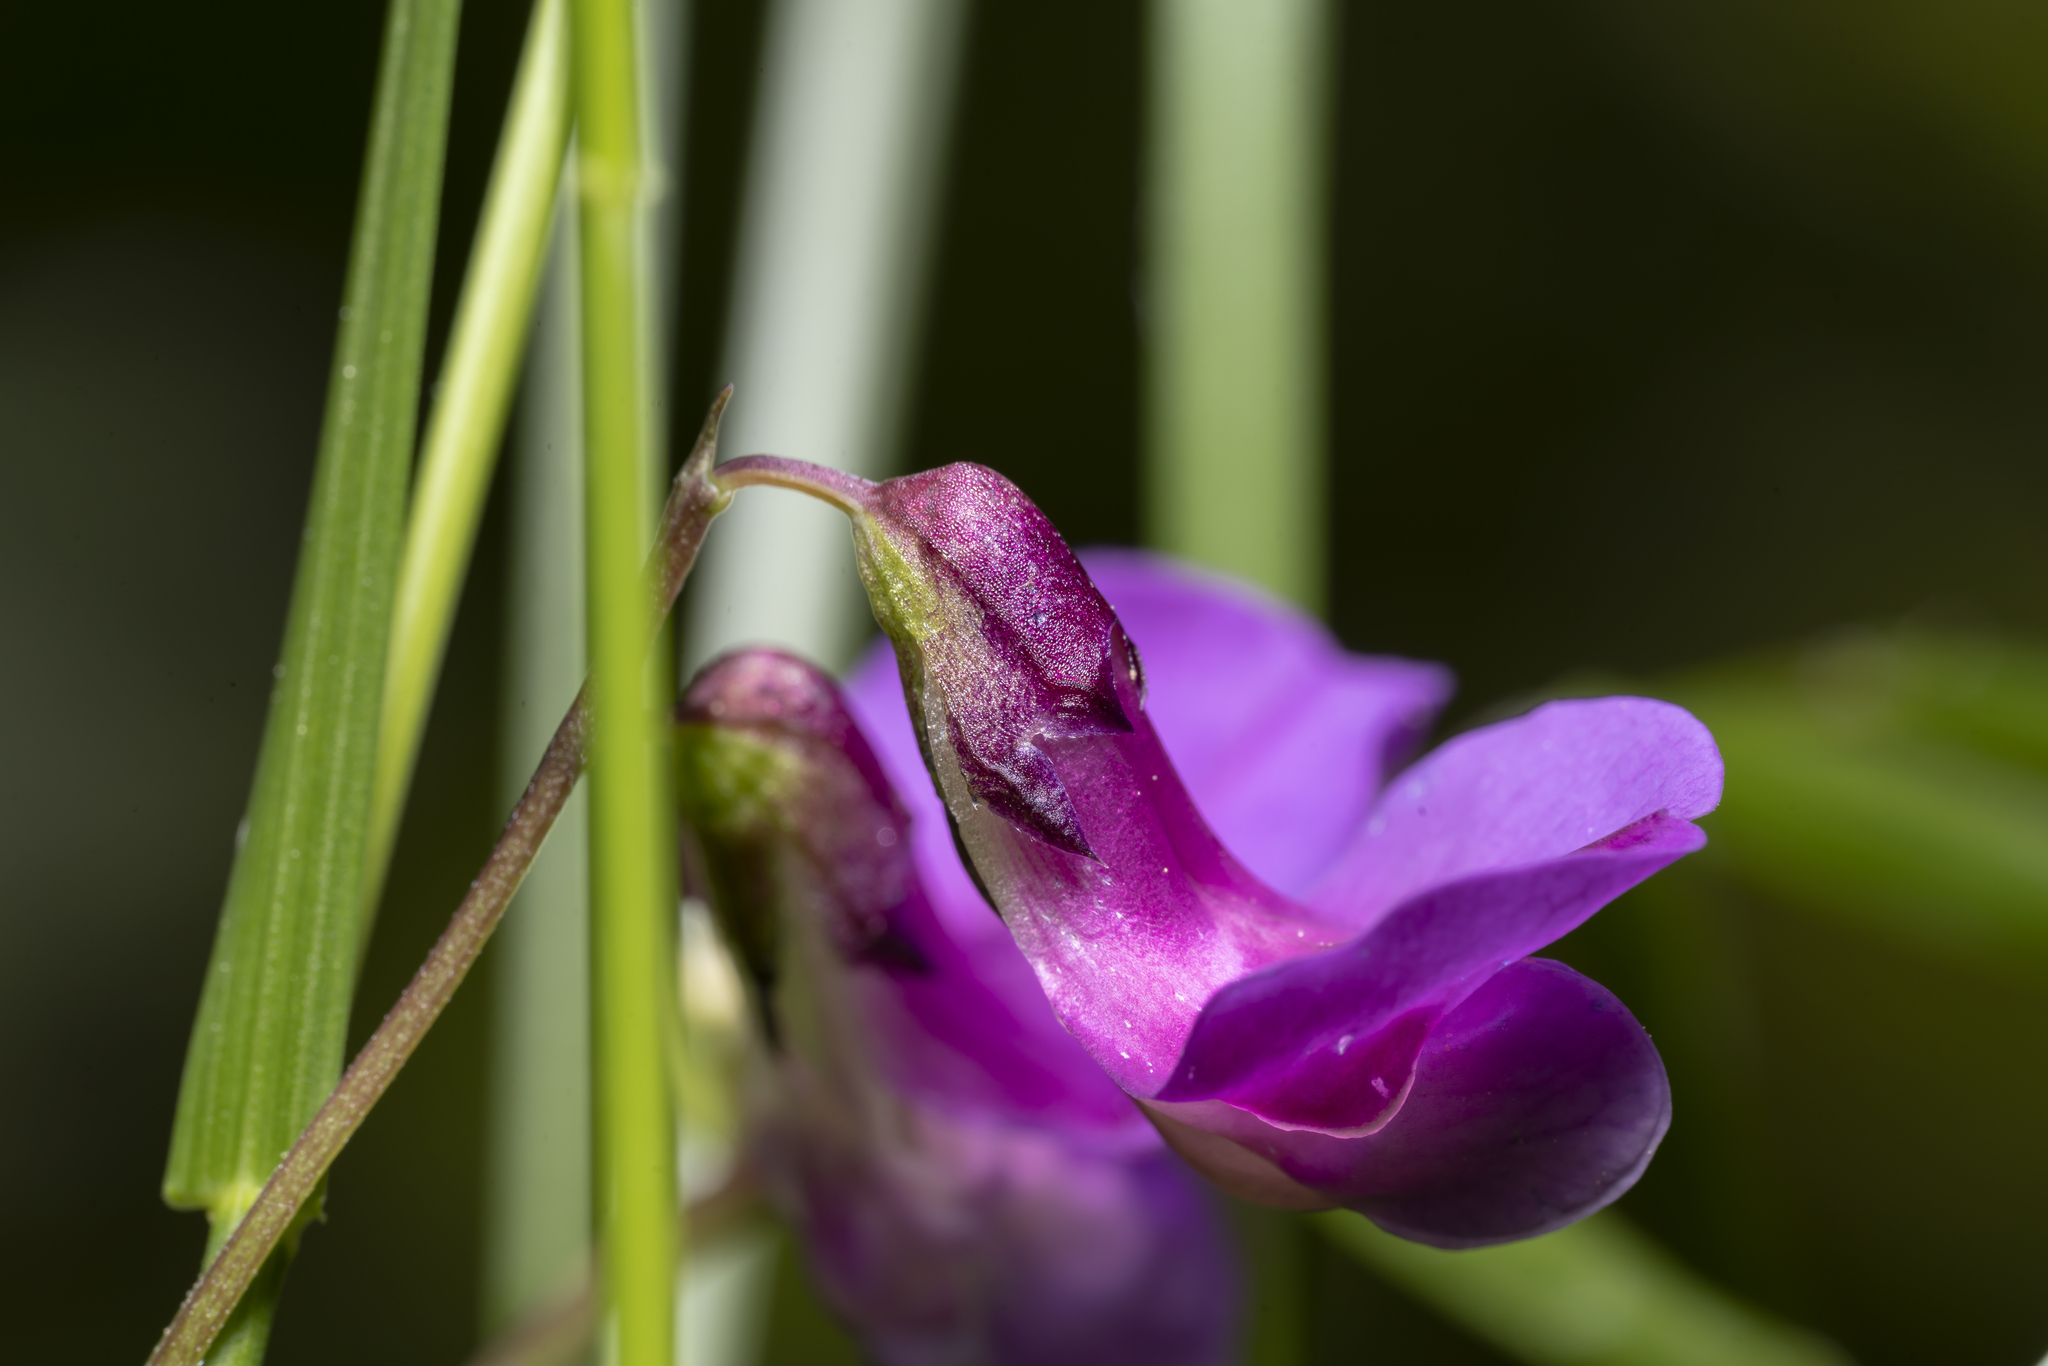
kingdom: Plantae
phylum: Tracheophyta
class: Magnoliopsida
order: Fabales
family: Fabaceae
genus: Lathyrus
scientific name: Lathyrus vernus
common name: Spring pea
